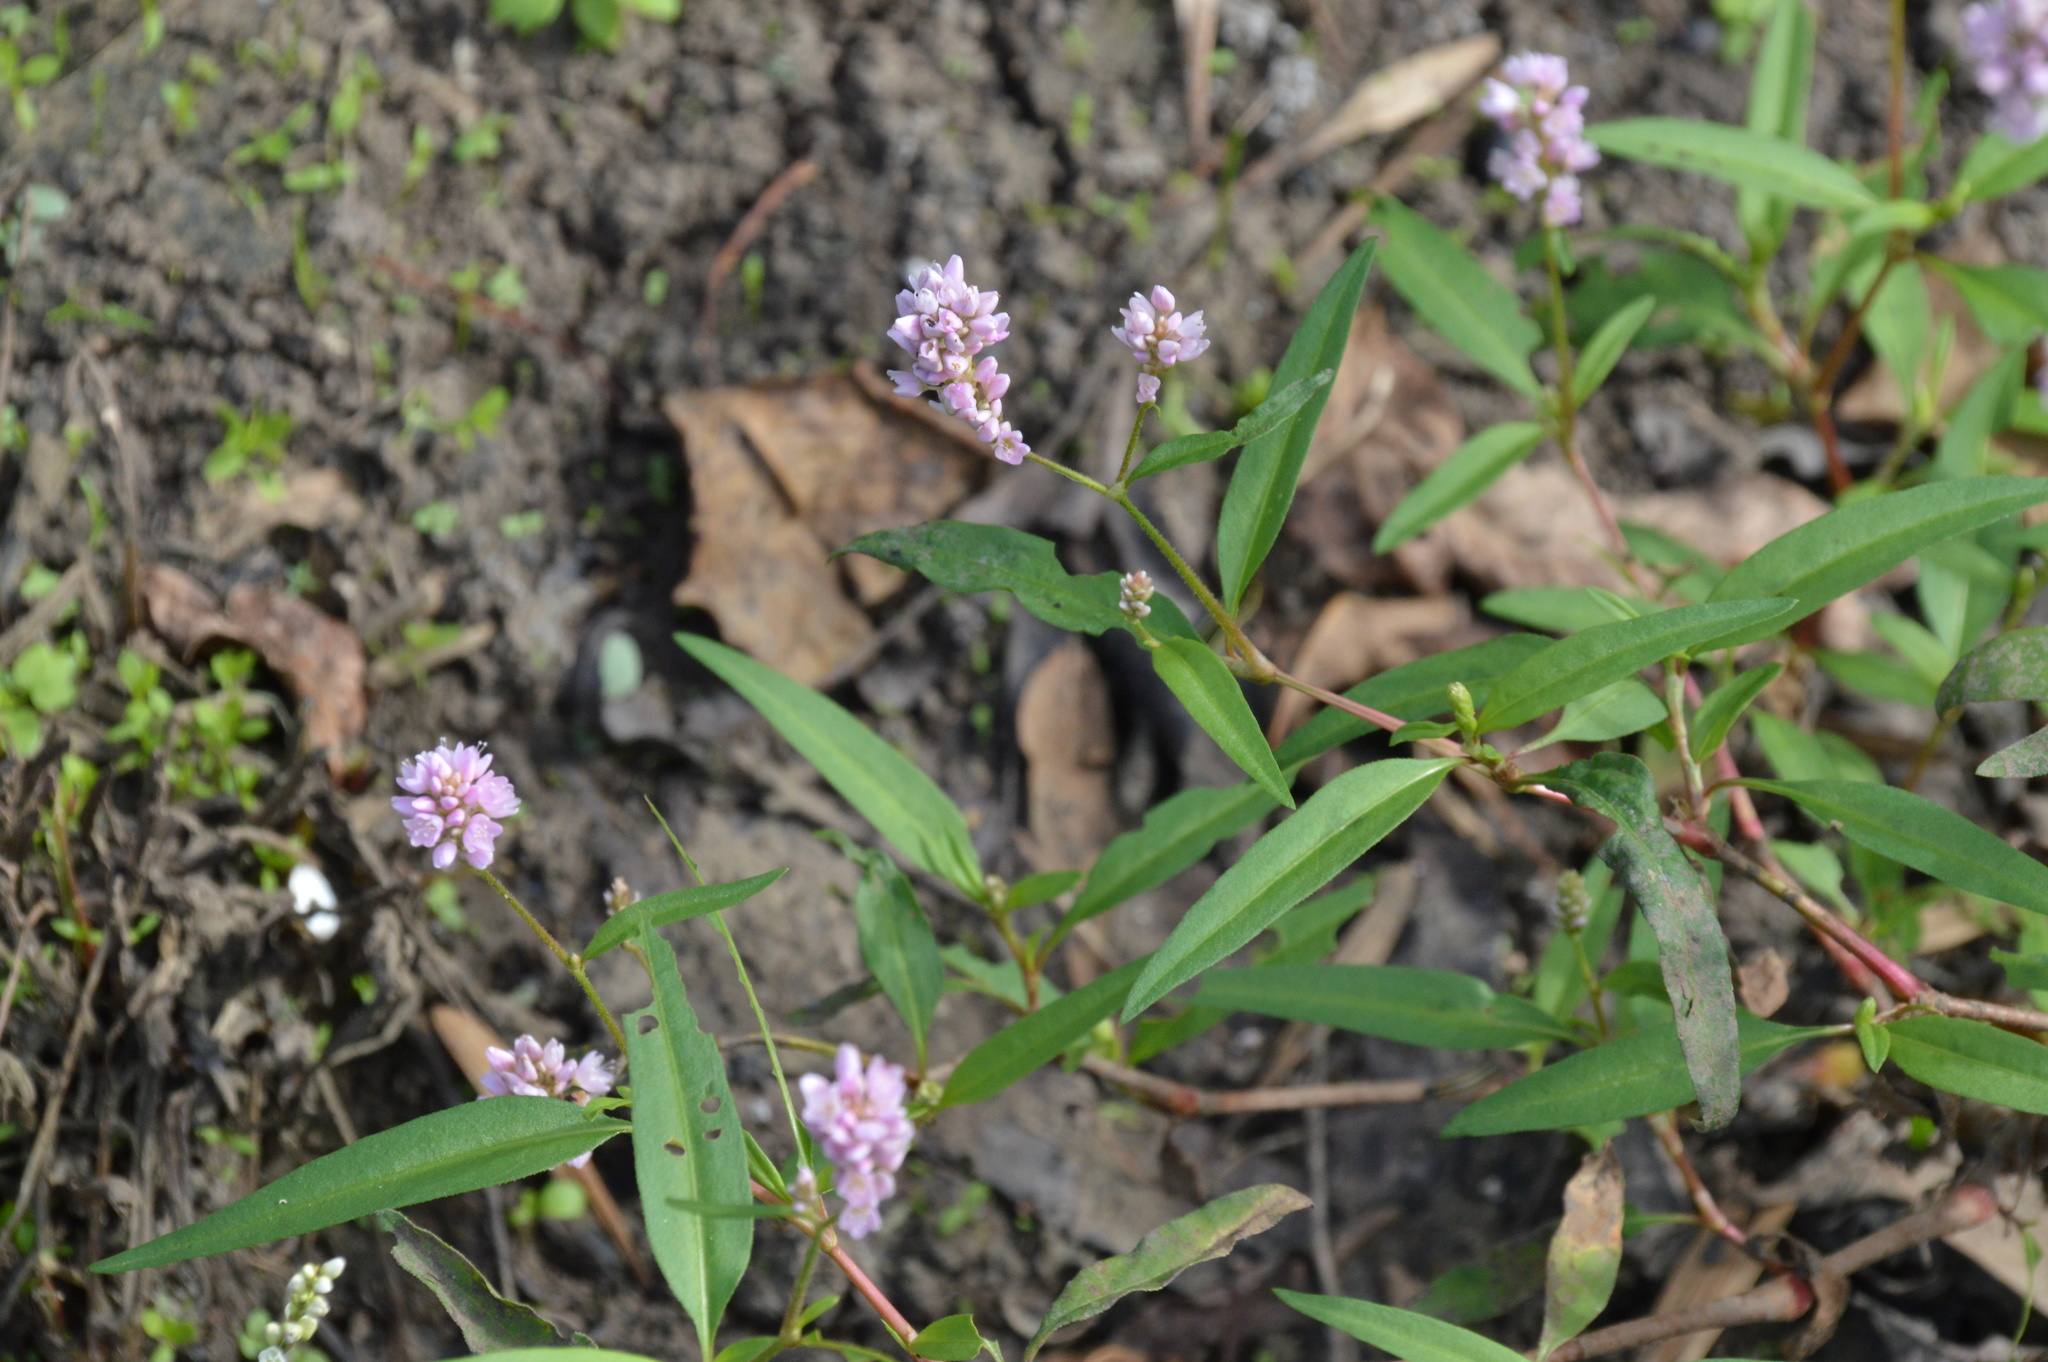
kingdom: Plantae
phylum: Tracheophyta
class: Magnoliopsida
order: Caryophyllales
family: Polygonaceae
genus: Persicaria
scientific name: Persicaria bicornis
